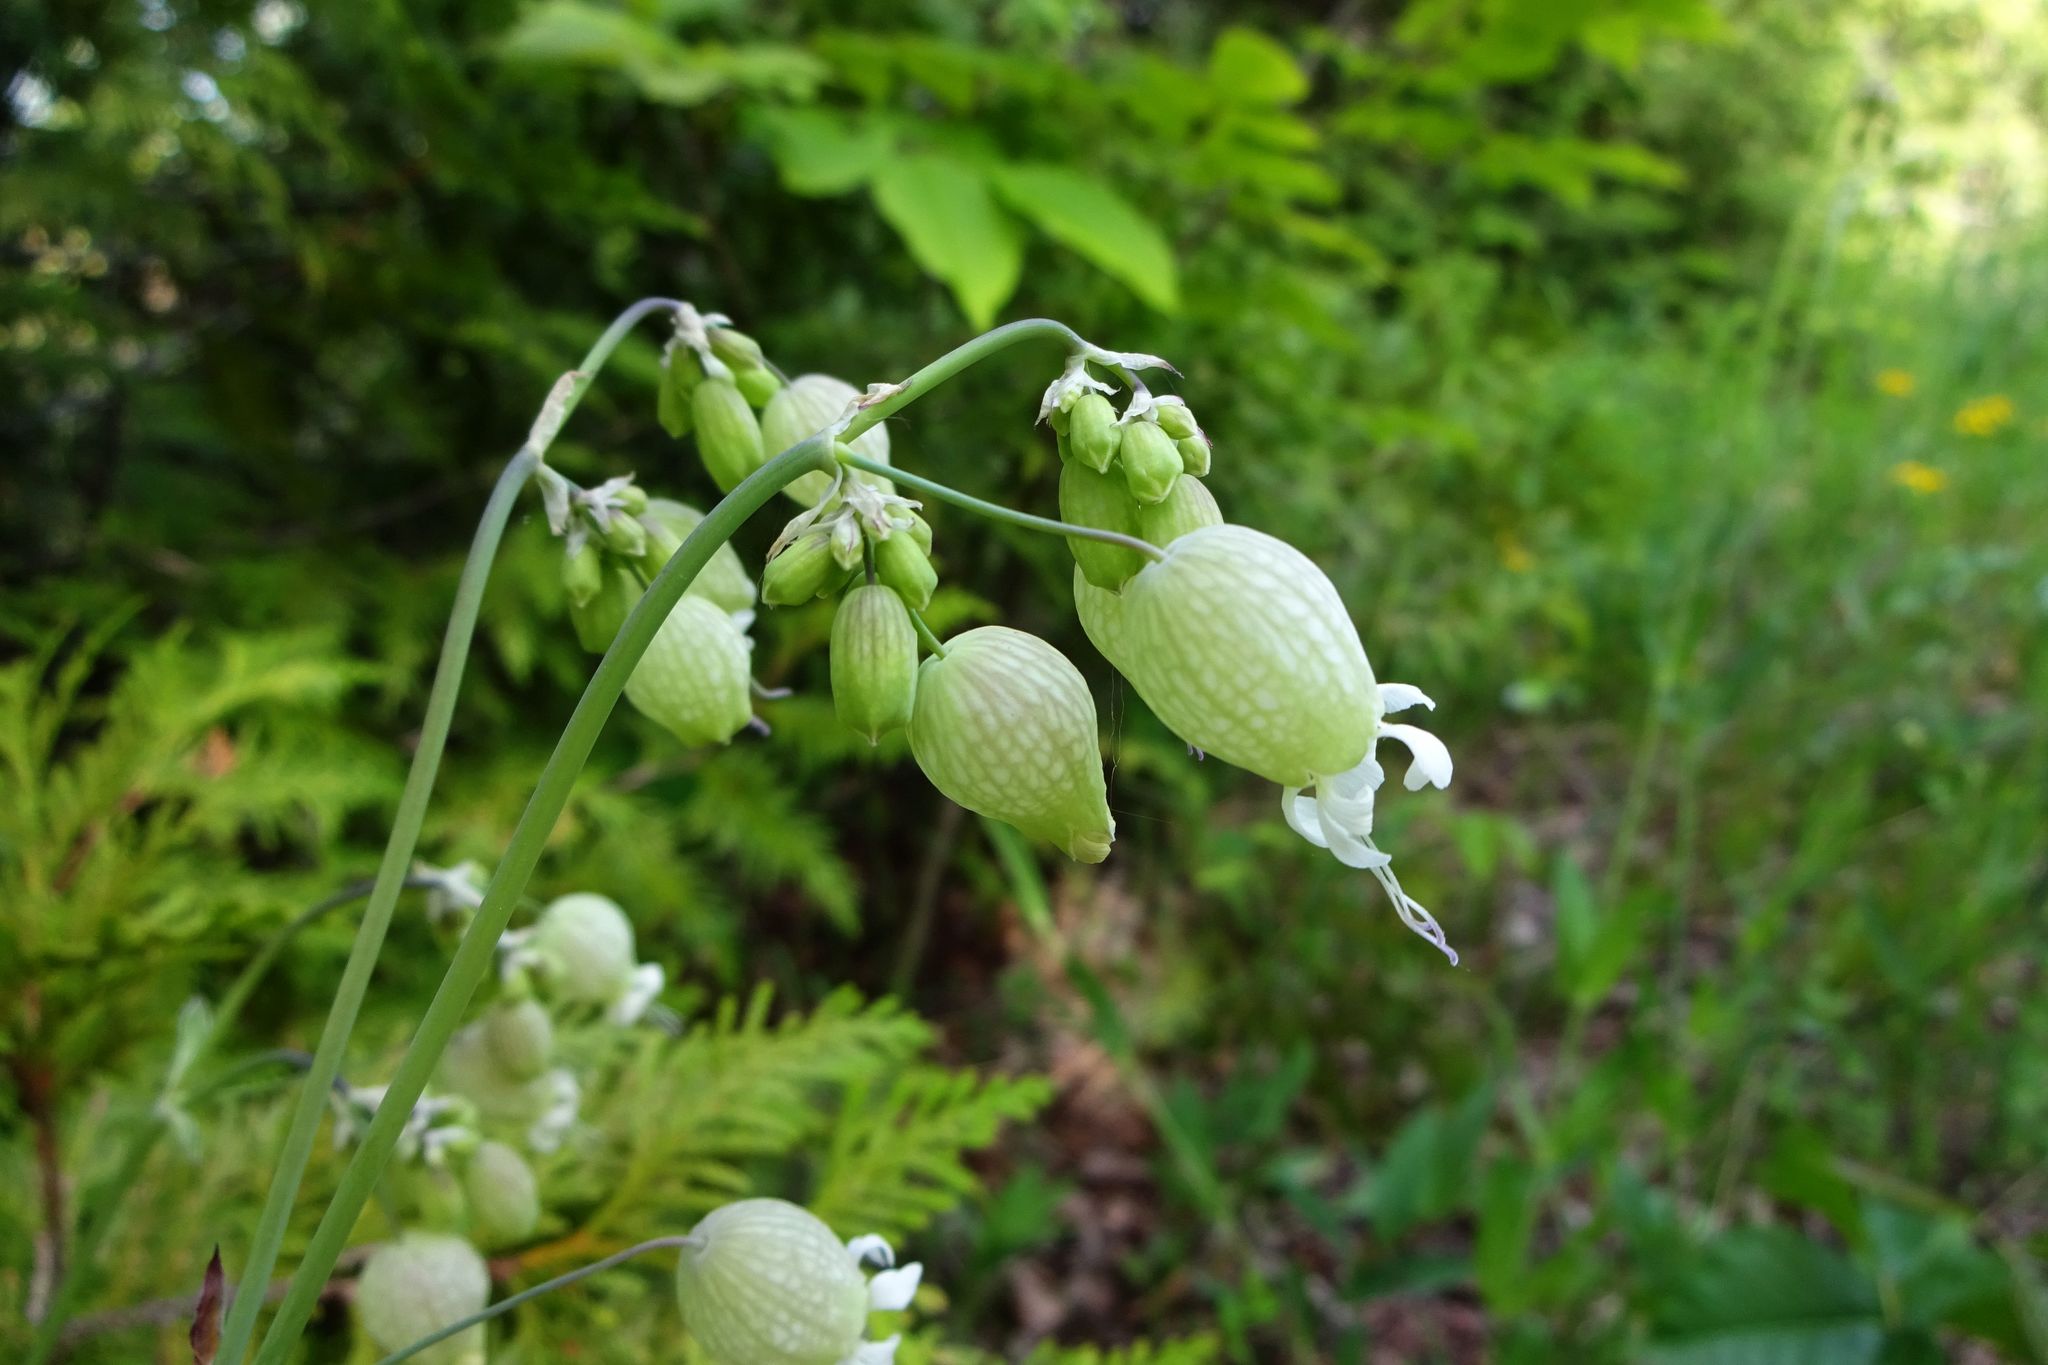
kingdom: Plantae
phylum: Tracheophyta
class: Magnoliopsida
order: Caryophyllales
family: Caryophyllaceae
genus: Silene
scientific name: Silene vulgaris
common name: Bladder campion
